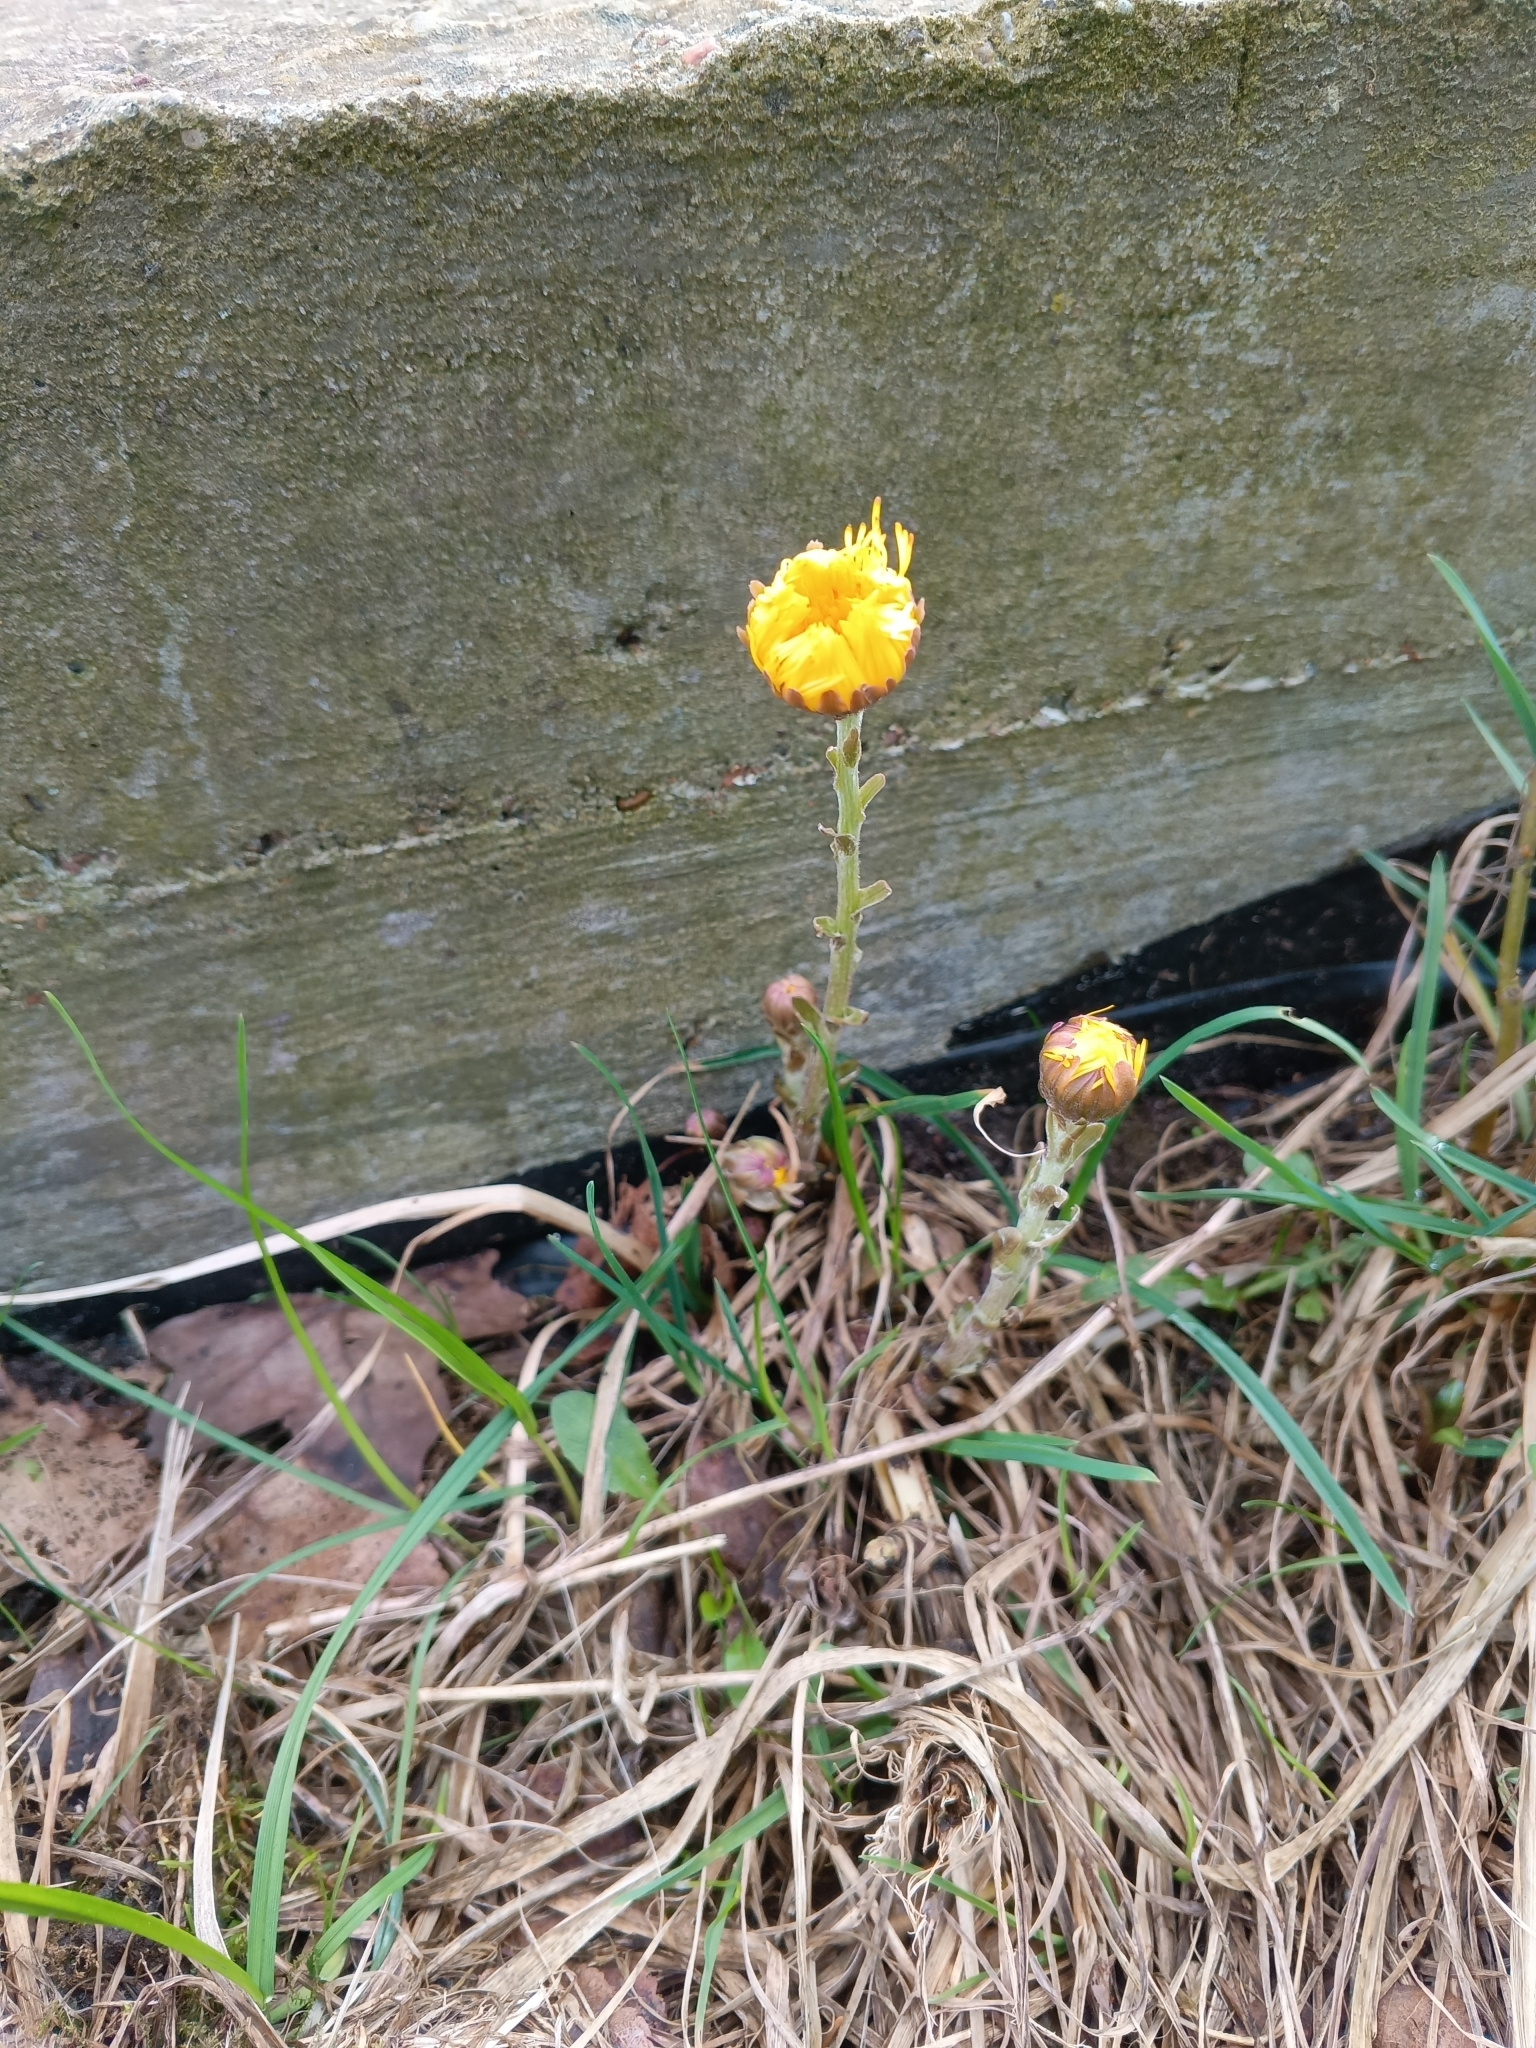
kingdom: Plantae
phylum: Tracheophyta
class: Magnoliopsida
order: Asterales
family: Asteraceae
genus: Tussilago
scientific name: Tussilago farfara
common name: Coltsfoot
